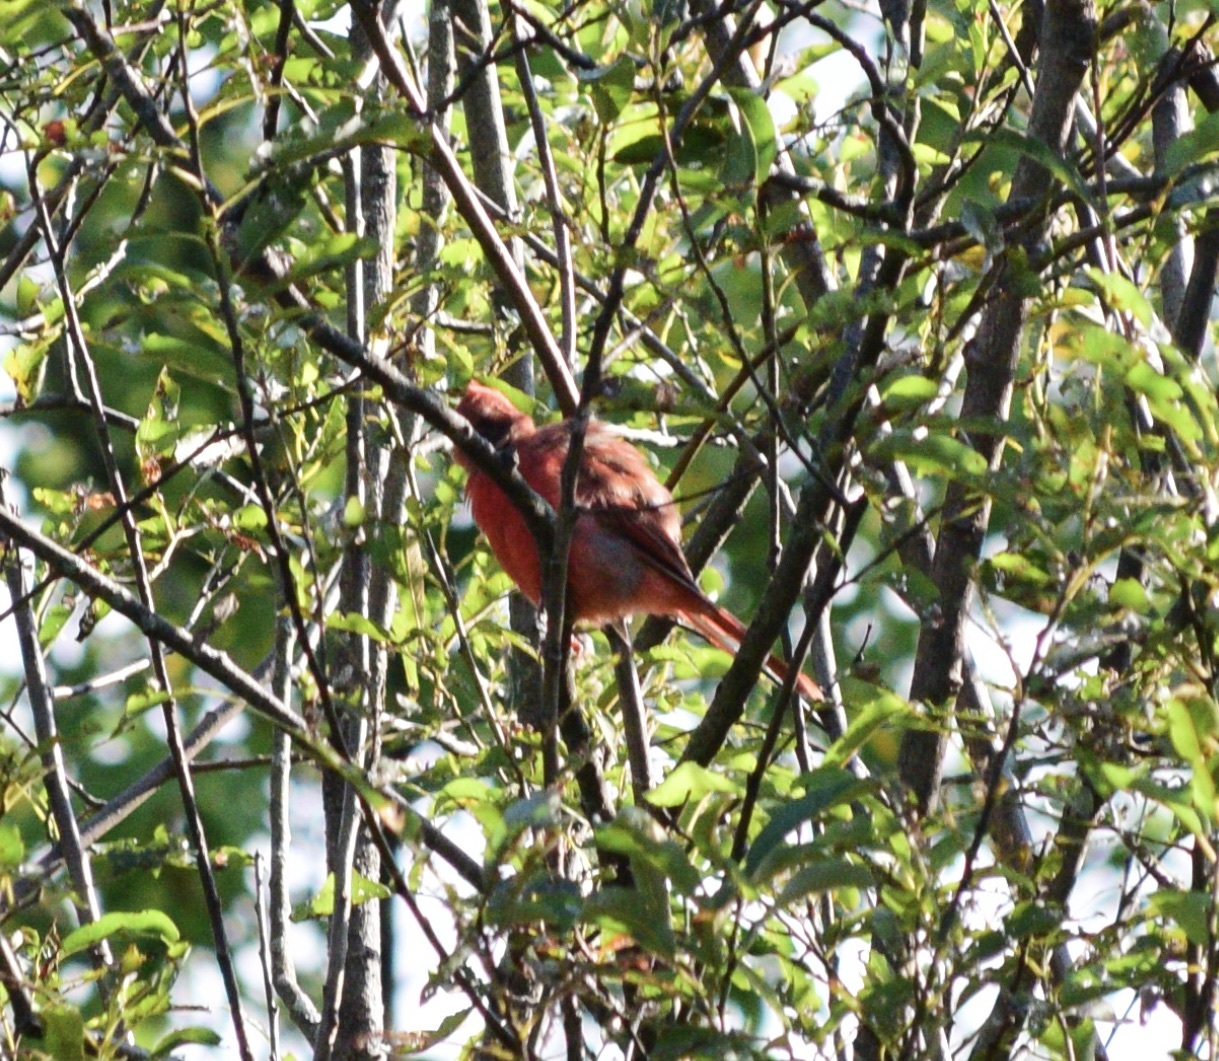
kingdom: Animalia
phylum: Chordata
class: Aves
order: Passeriformes
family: Cardinalidae
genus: Cardinalis
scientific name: Cardinalis cardinalis
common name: Northern cardinal
